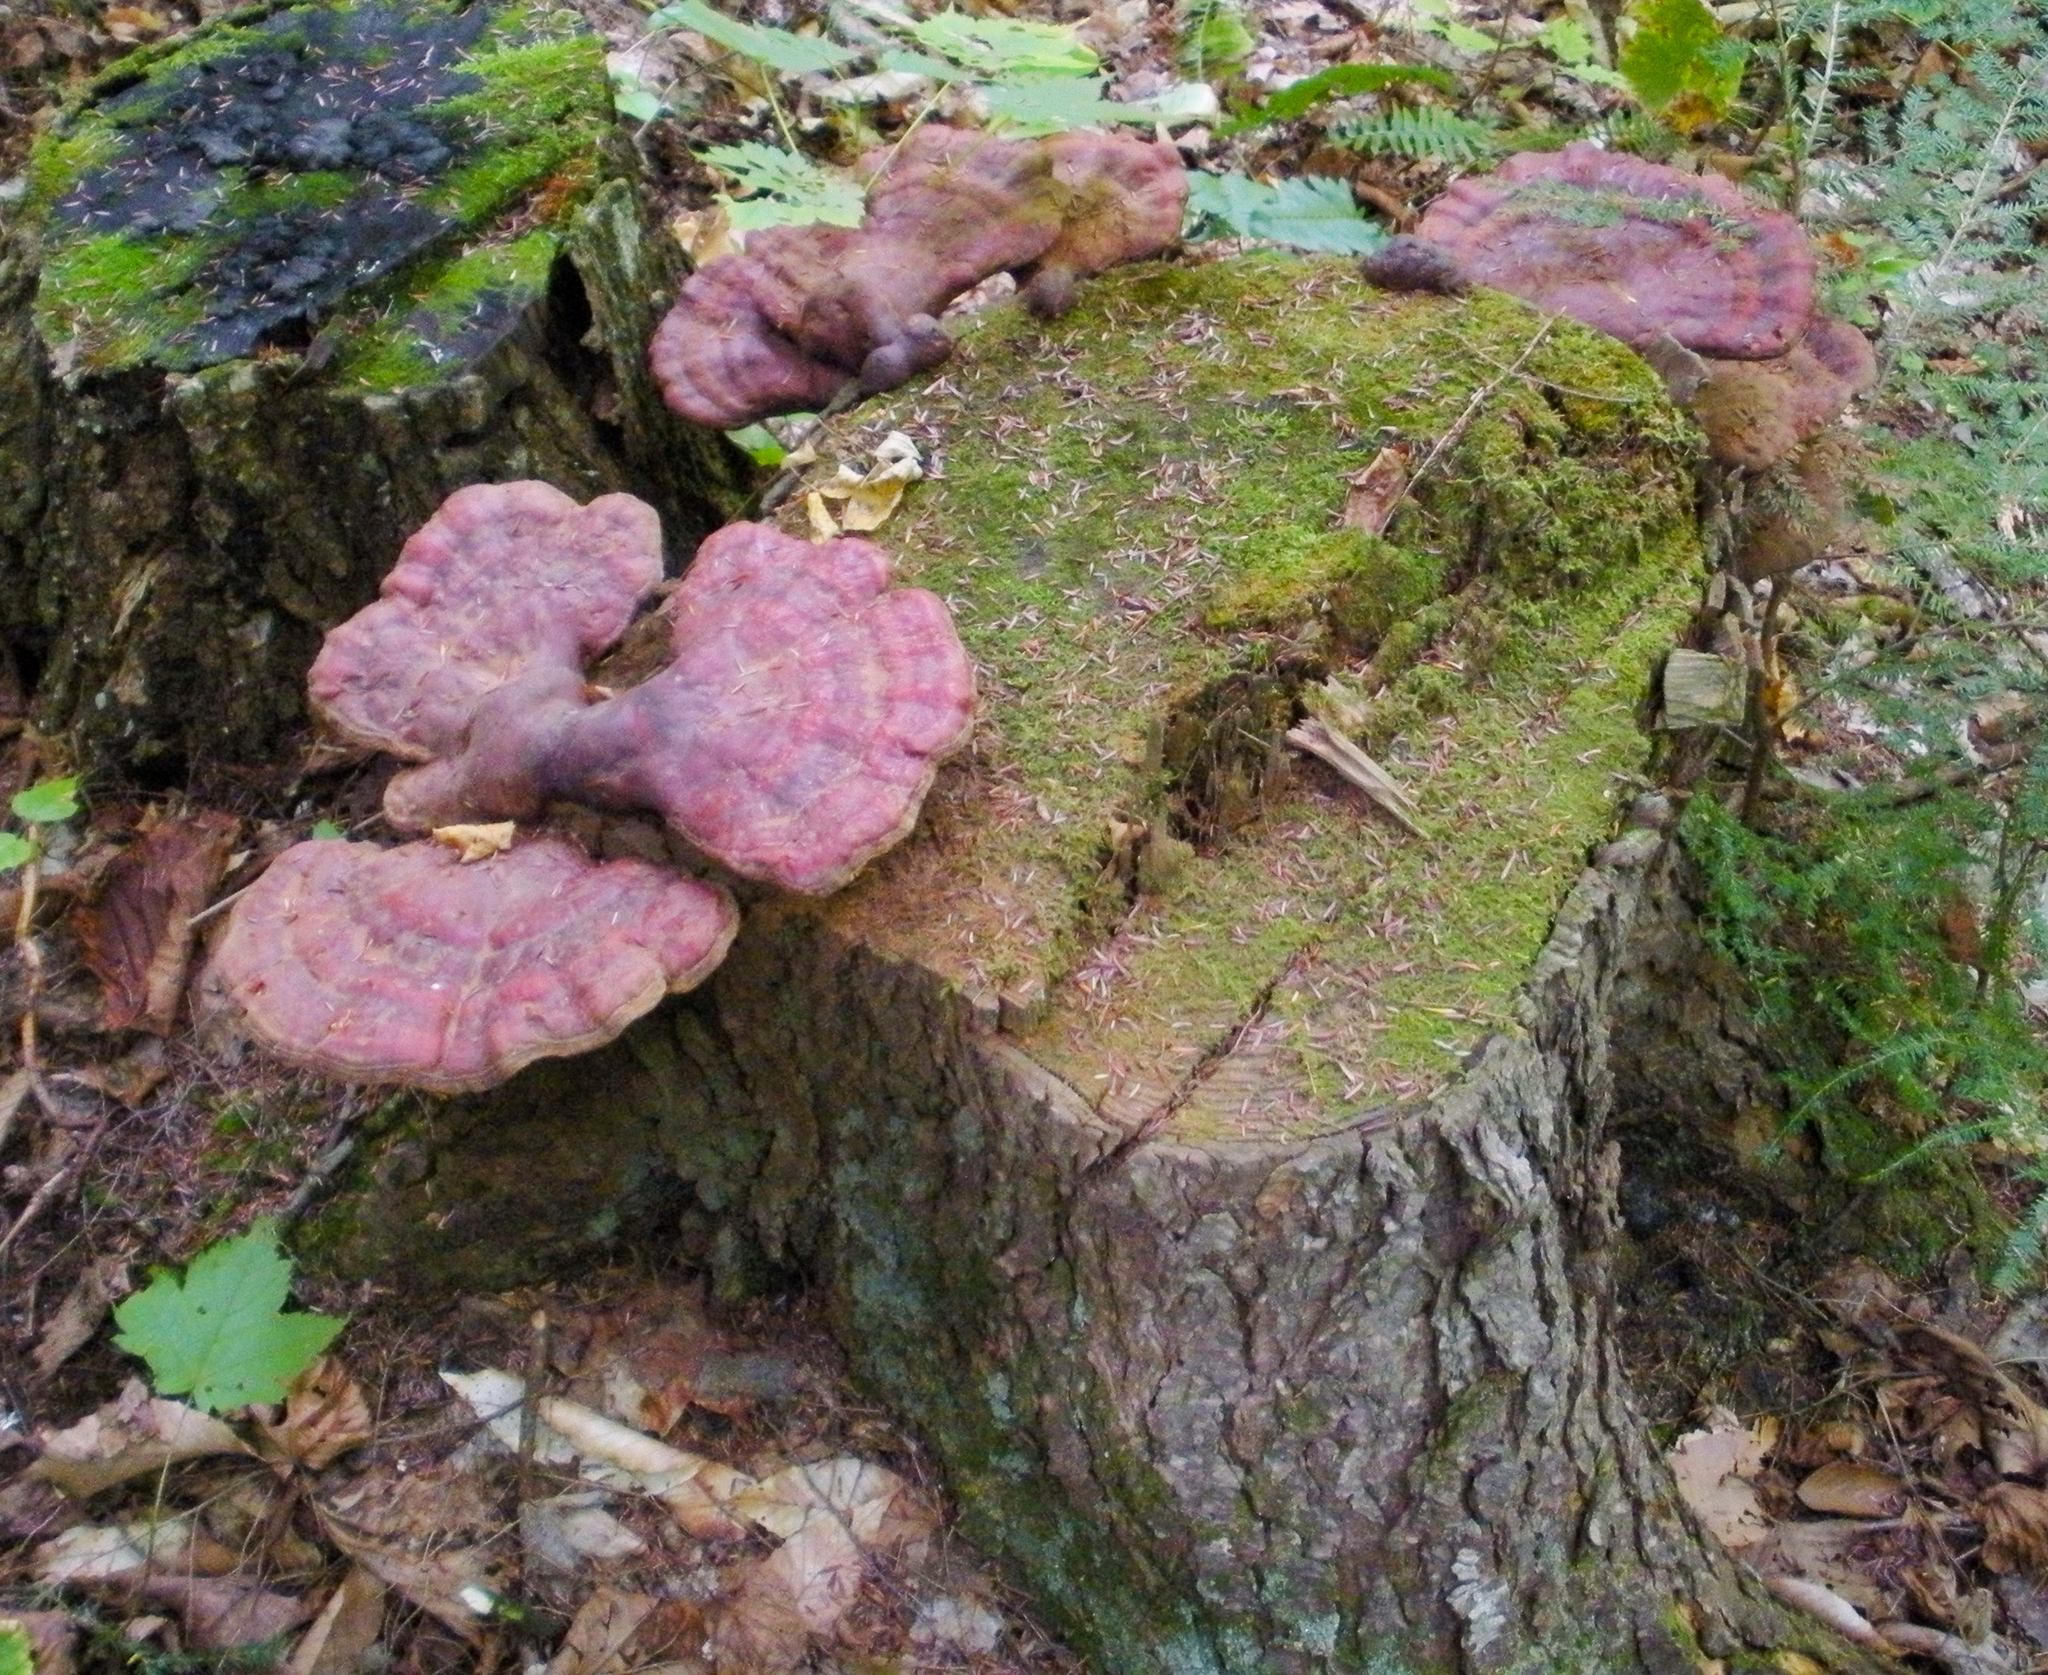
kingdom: Fungi
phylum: Basidiomycota
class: Agaricomycetes
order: Polyporales
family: Polyporaceae
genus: Ganoderma
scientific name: Ganoderma tsugae
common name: Hemlock varnish shelf
